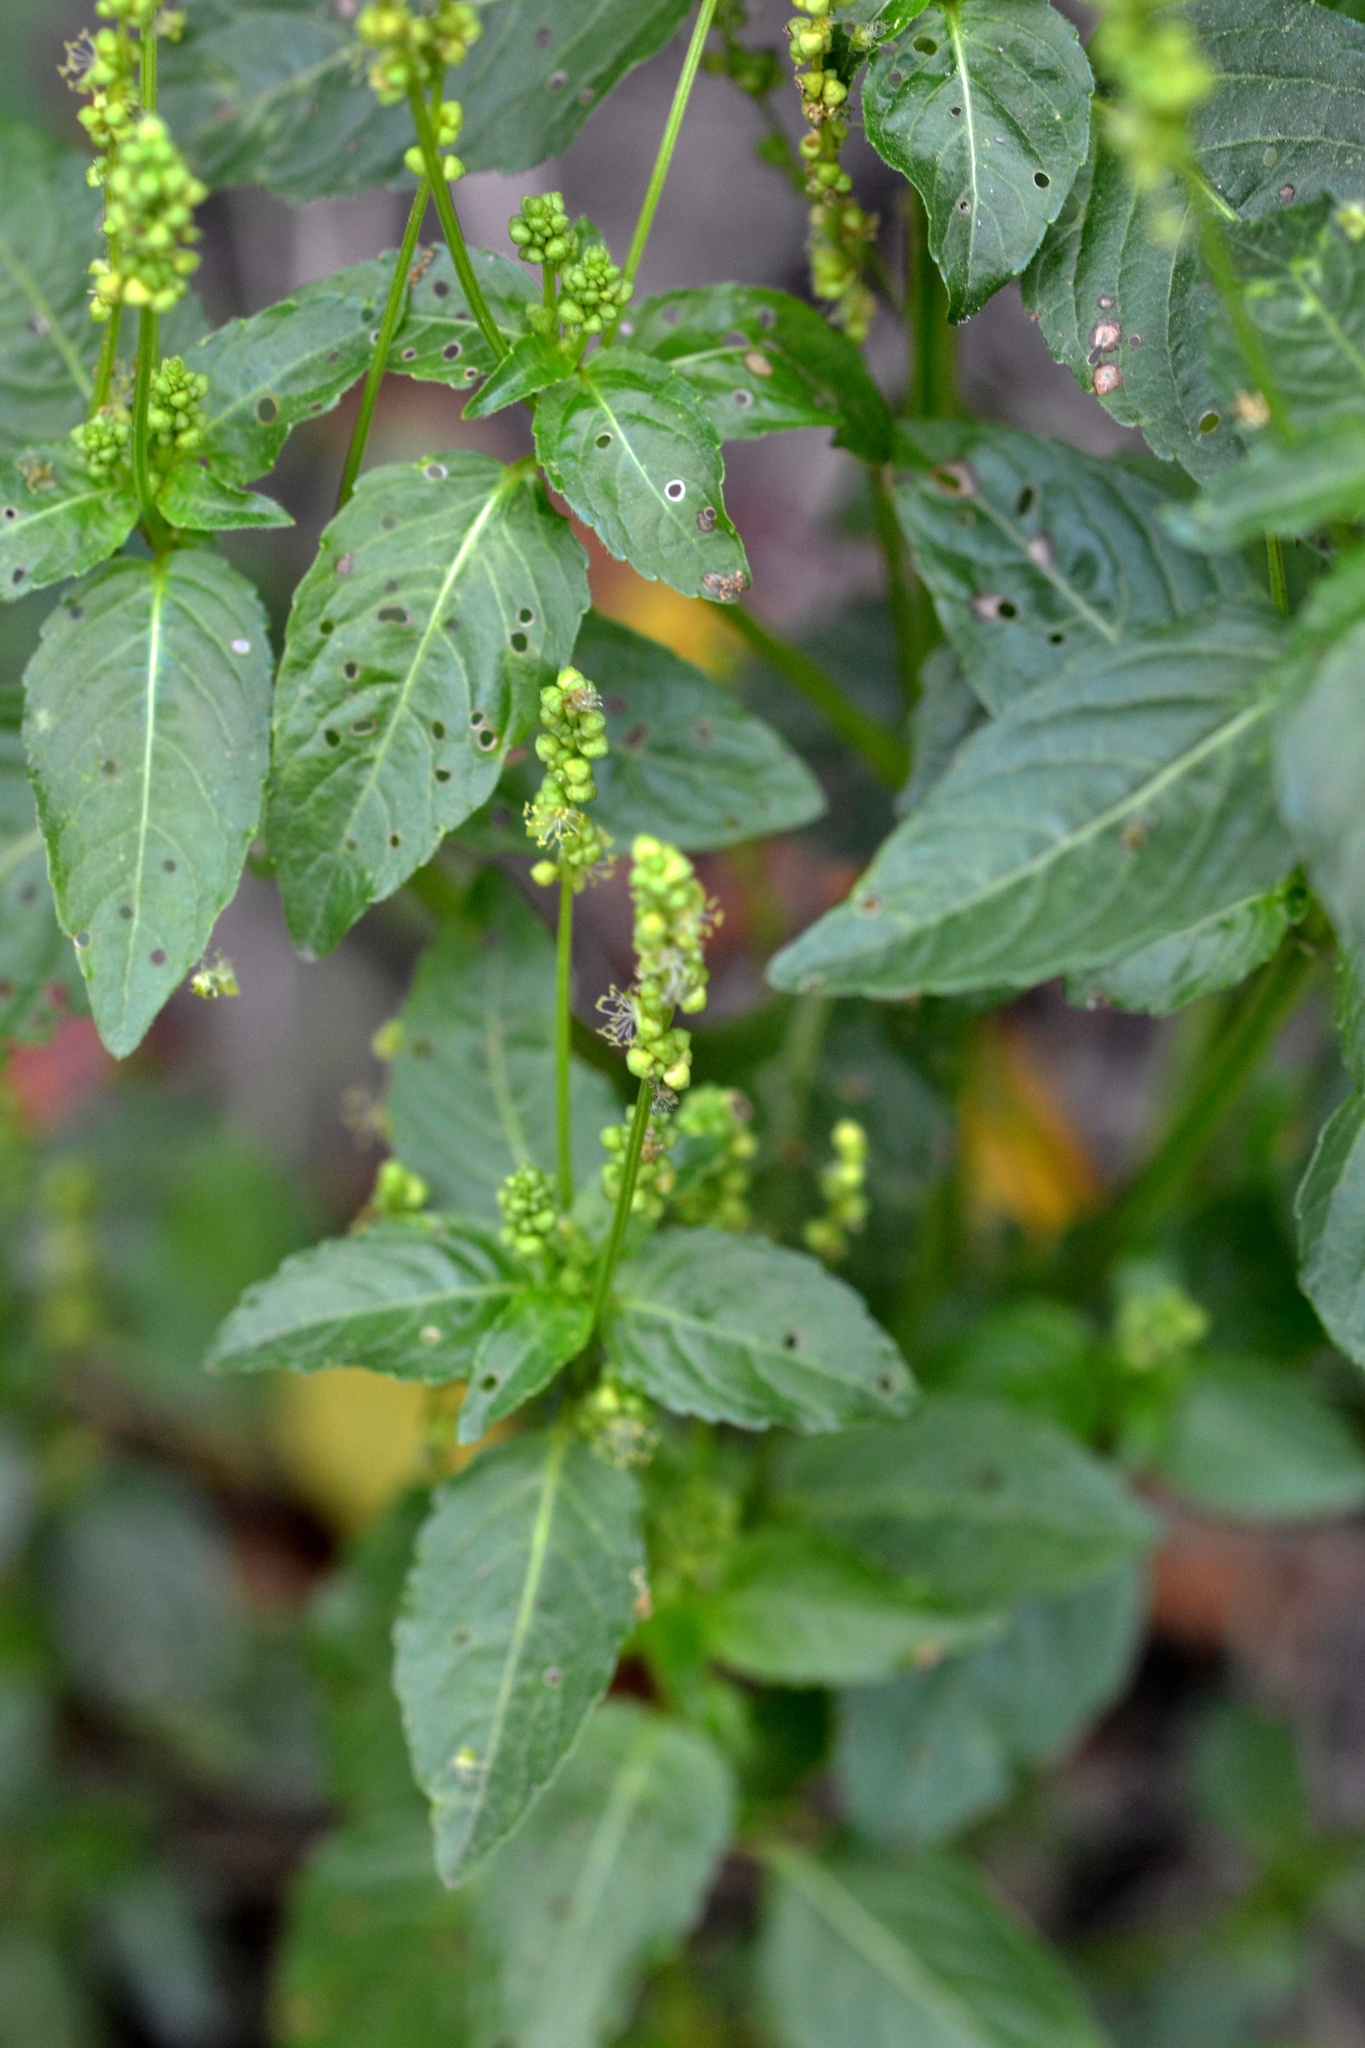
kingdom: Plantae
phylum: Tracheophyta
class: Magnoliopsida
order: Malpighiales
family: Euphorbiaceae
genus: Mercurialis
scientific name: Mercurialis annua
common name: Annual mercury
